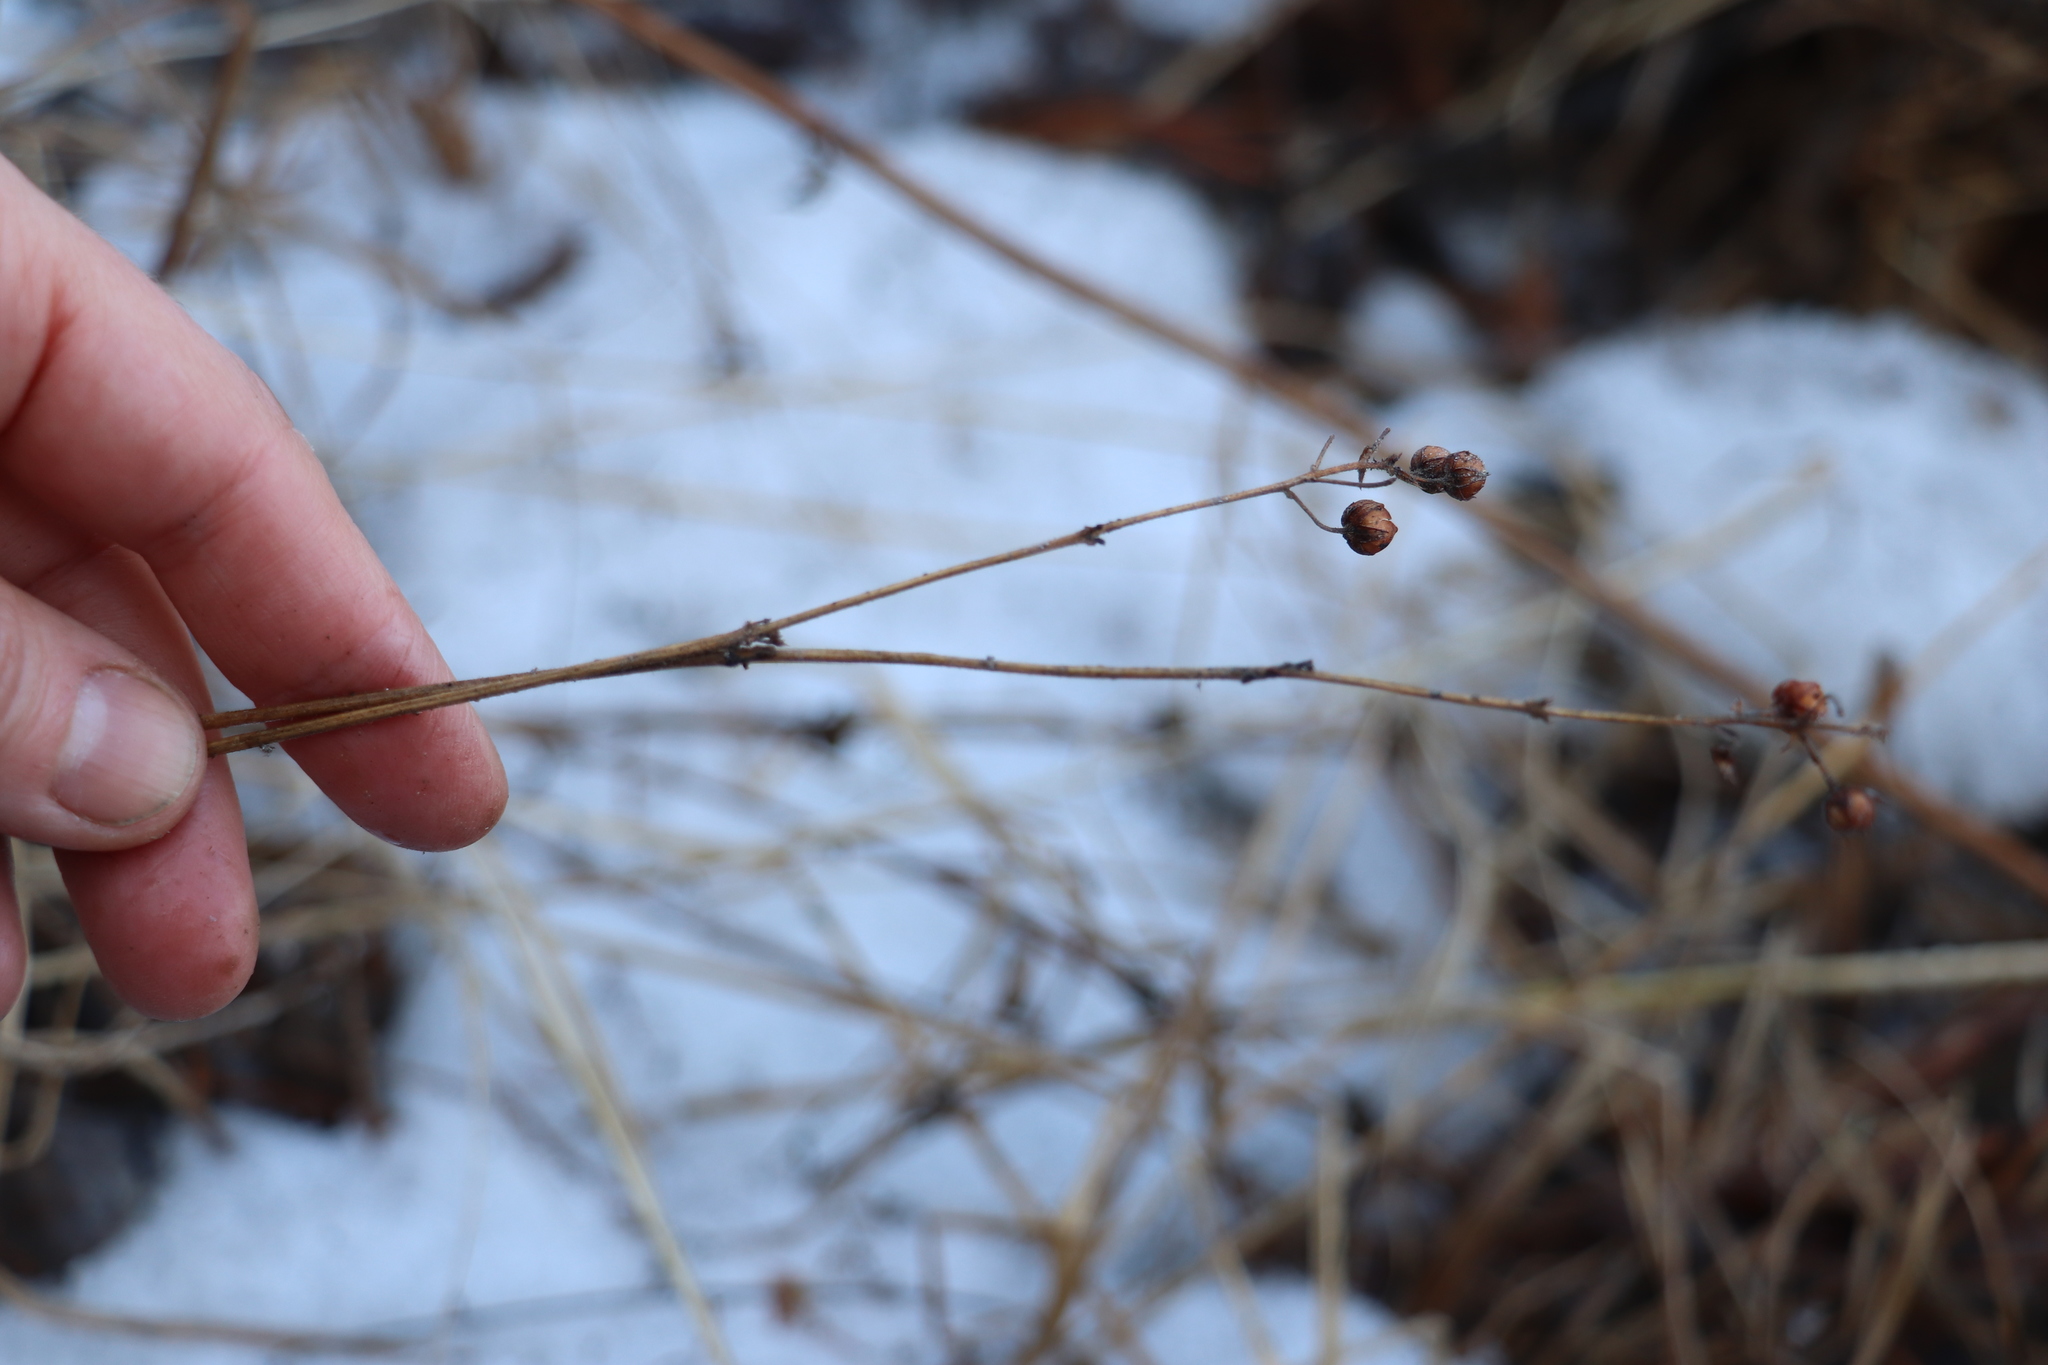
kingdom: Plantae
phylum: Tracheophyta
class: Magnoliopsida
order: Ericales
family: Primulaceae
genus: Lysimachia
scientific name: Lysimachia vulgaris
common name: Yellow loosestrife
